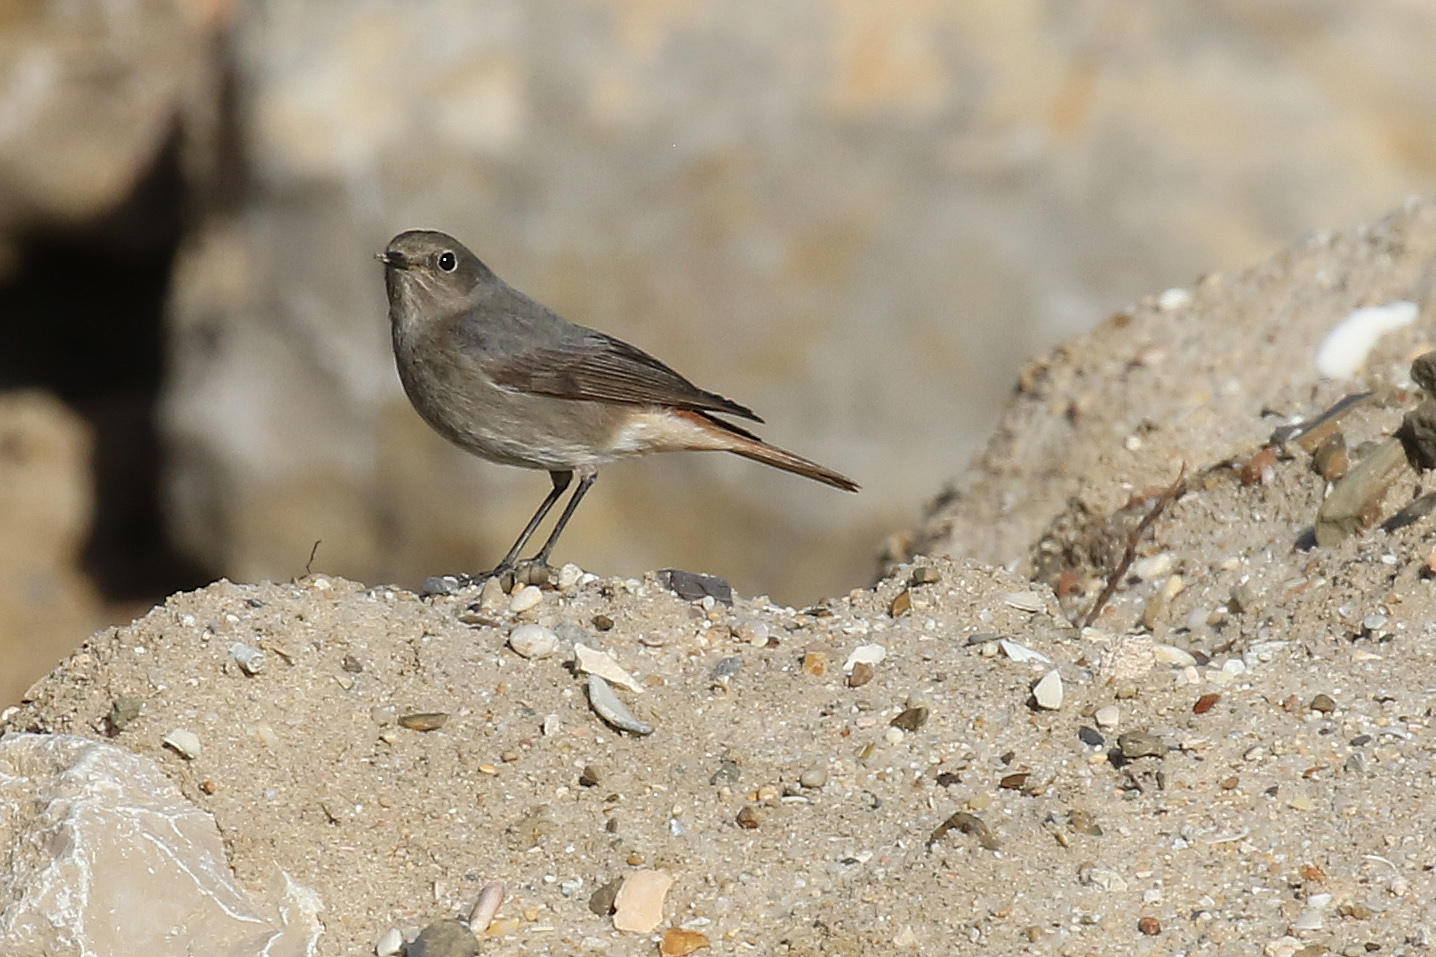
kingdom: Animalia
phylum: Chordata
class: Aves
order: Passeriformes
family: Muscicapidae
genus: Phoenicurus
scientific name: Phoenicurus ochruros
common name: Black redstart
